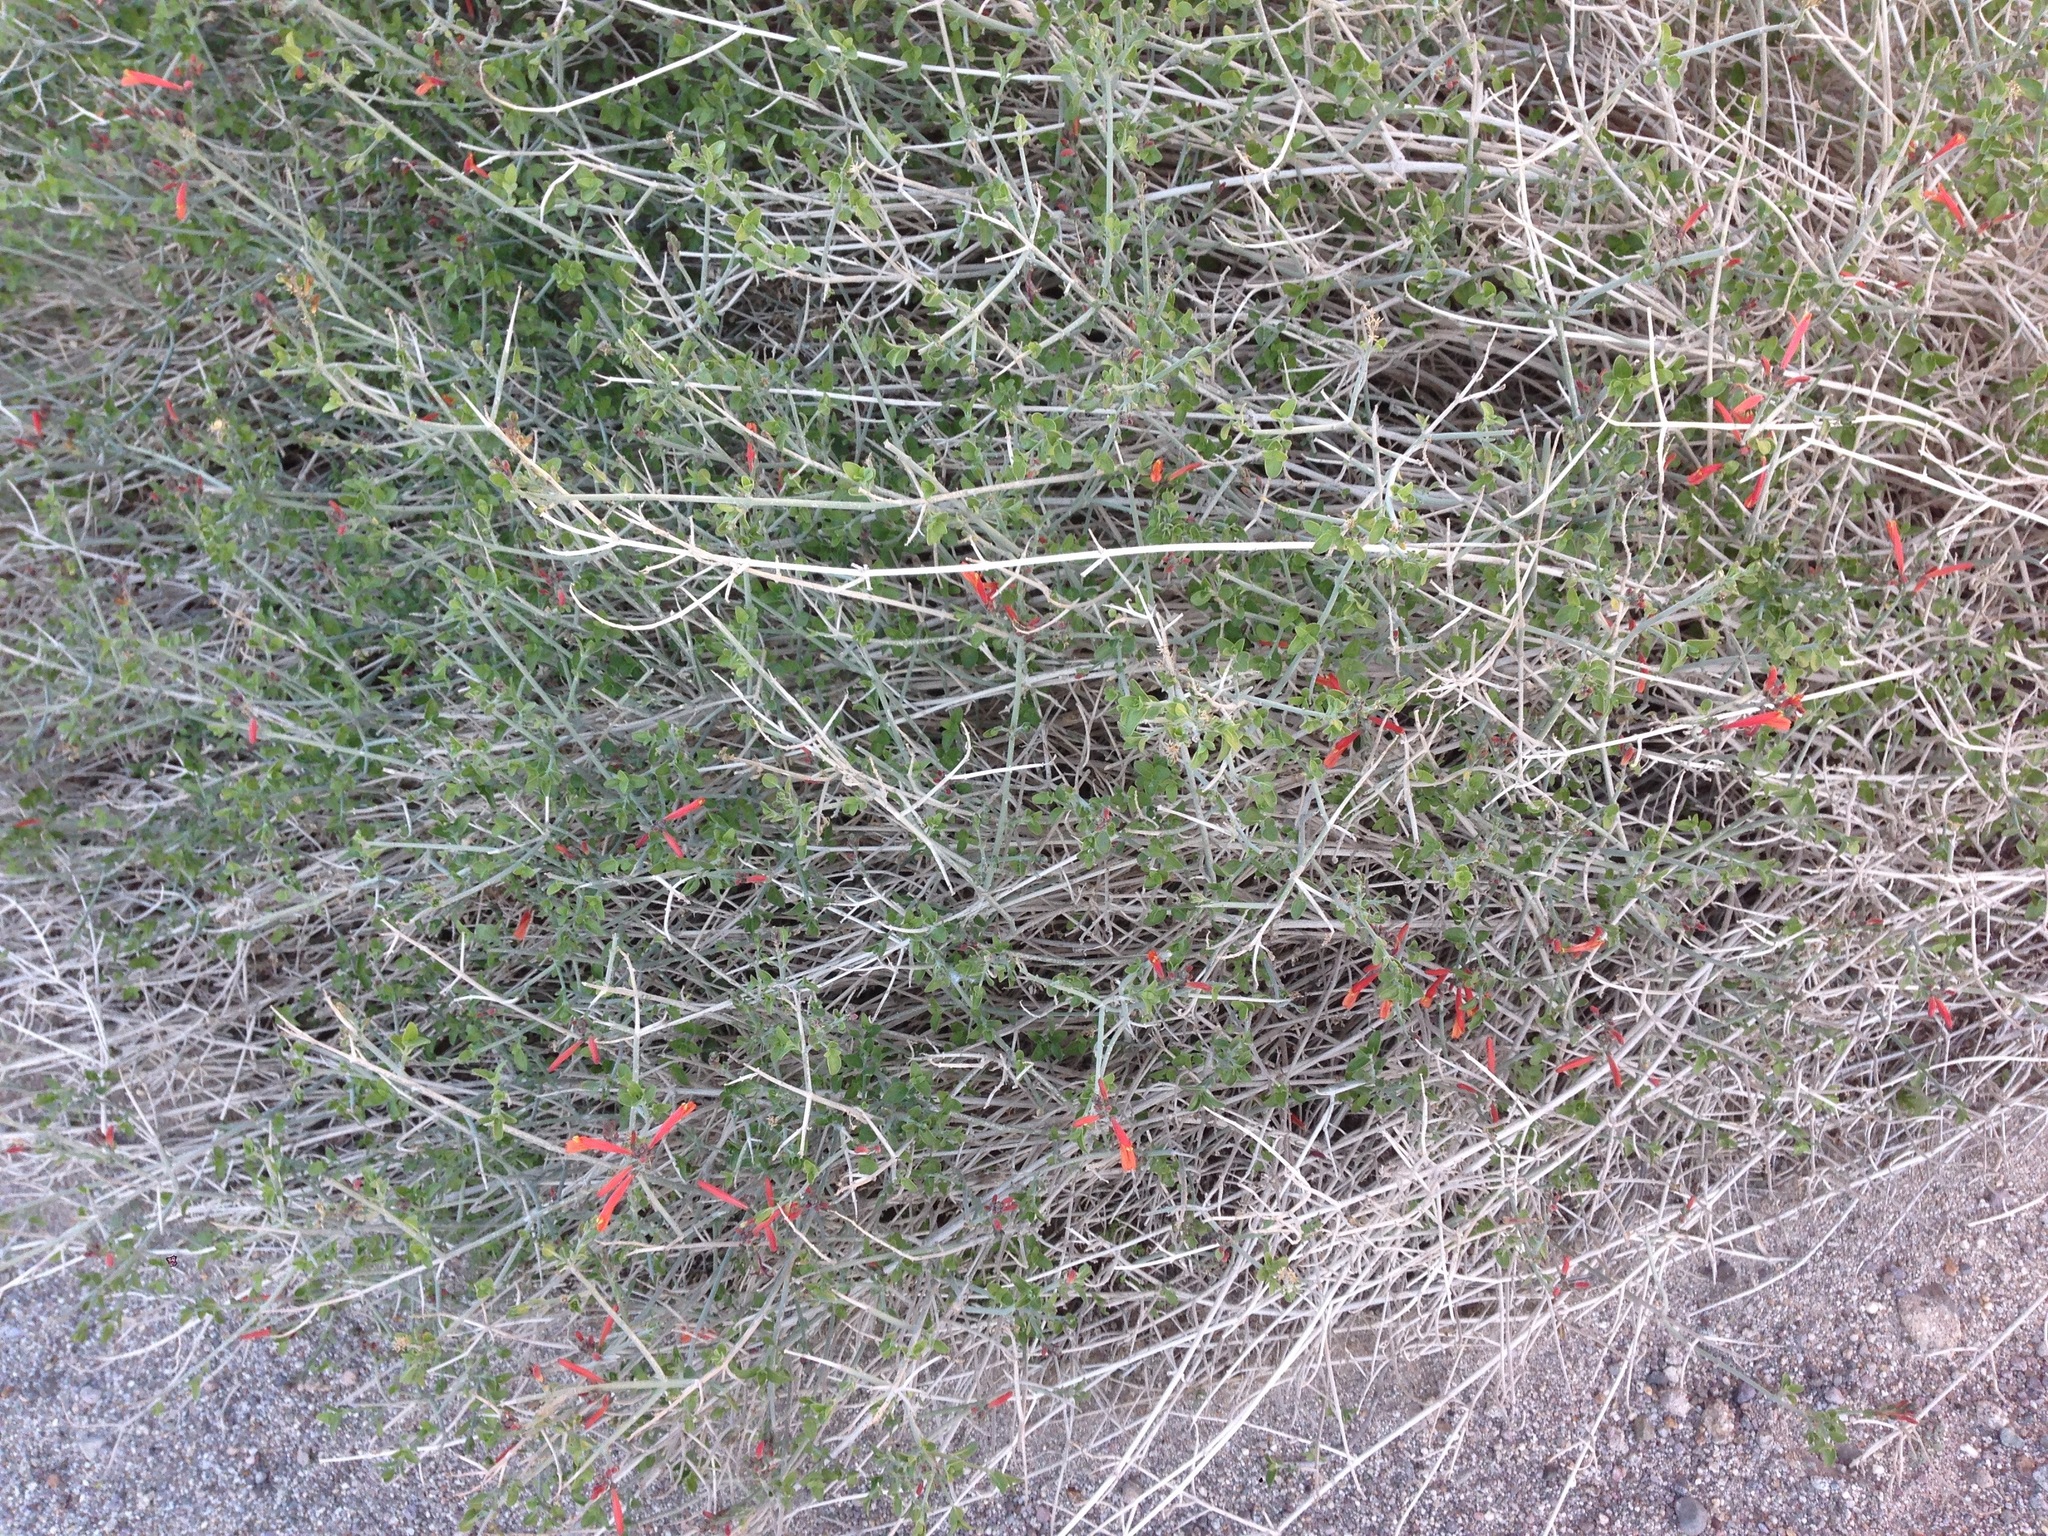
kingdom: Plantae
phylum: Tracheophyta
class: Magnoliopsida
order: Lamiales
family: Acanthaceae
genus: Justicia
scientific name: Justicia californica
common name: Chuparosa-honeysuckle
